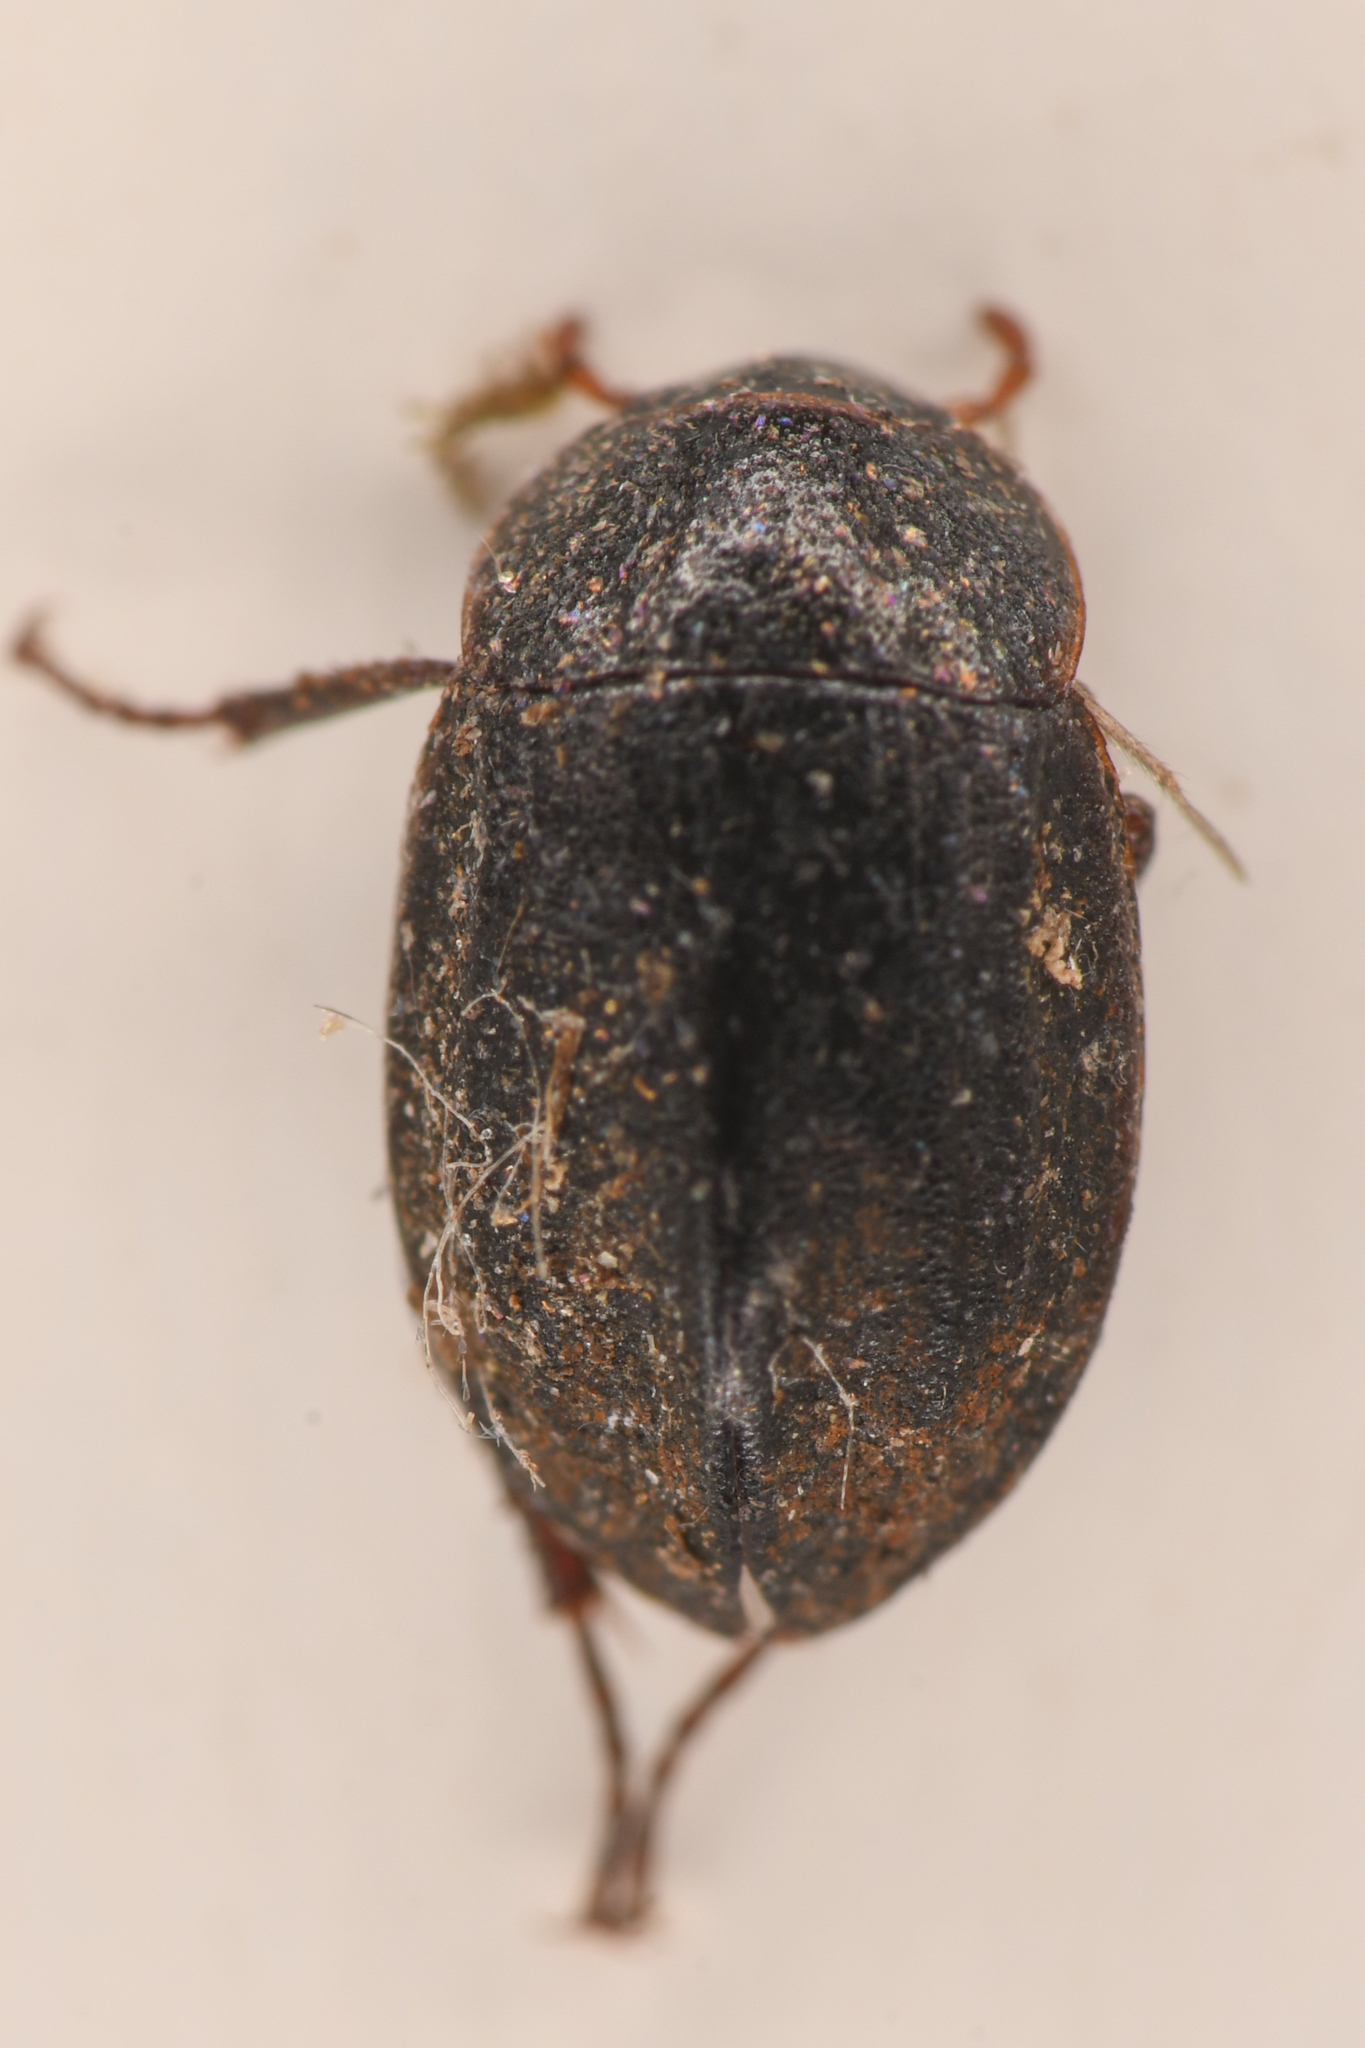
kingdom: Animalia
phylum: Arthropoda
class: Insecta
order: Coleoptera
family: Hydrophilidae
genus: Ametor
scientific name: Ametor scabrosus
